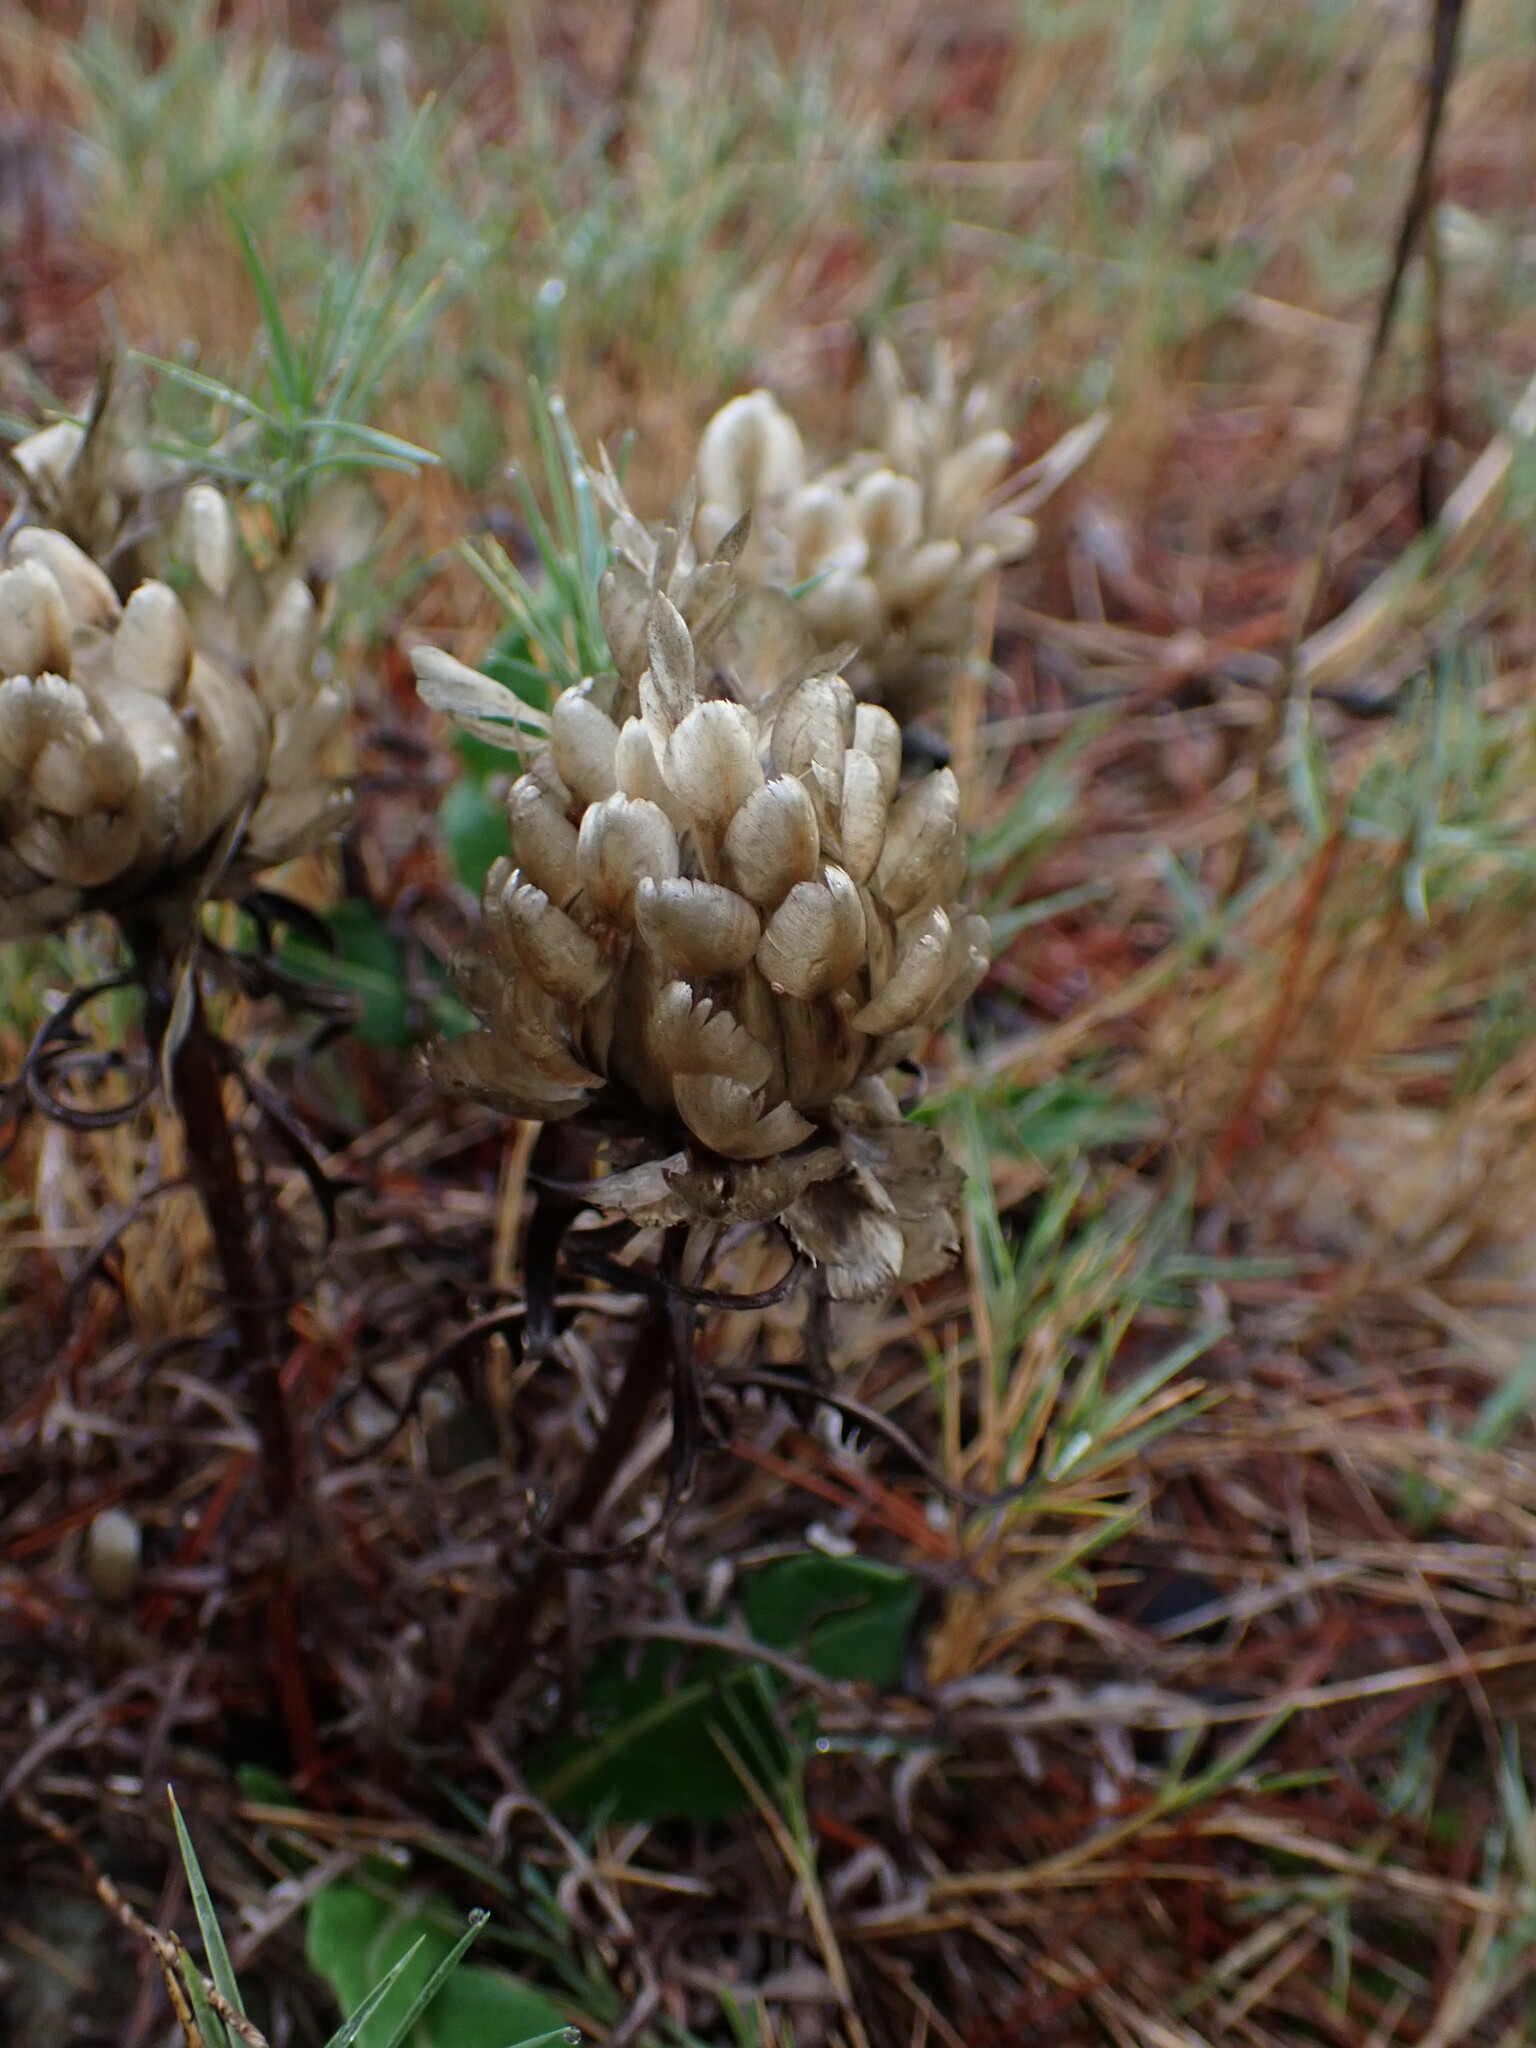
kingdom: Plantae
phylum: Tracheophyta
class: Magnoliopsida
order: Asterales
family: Asteraceae
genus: Leuzea
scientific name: Leuzea conifera
